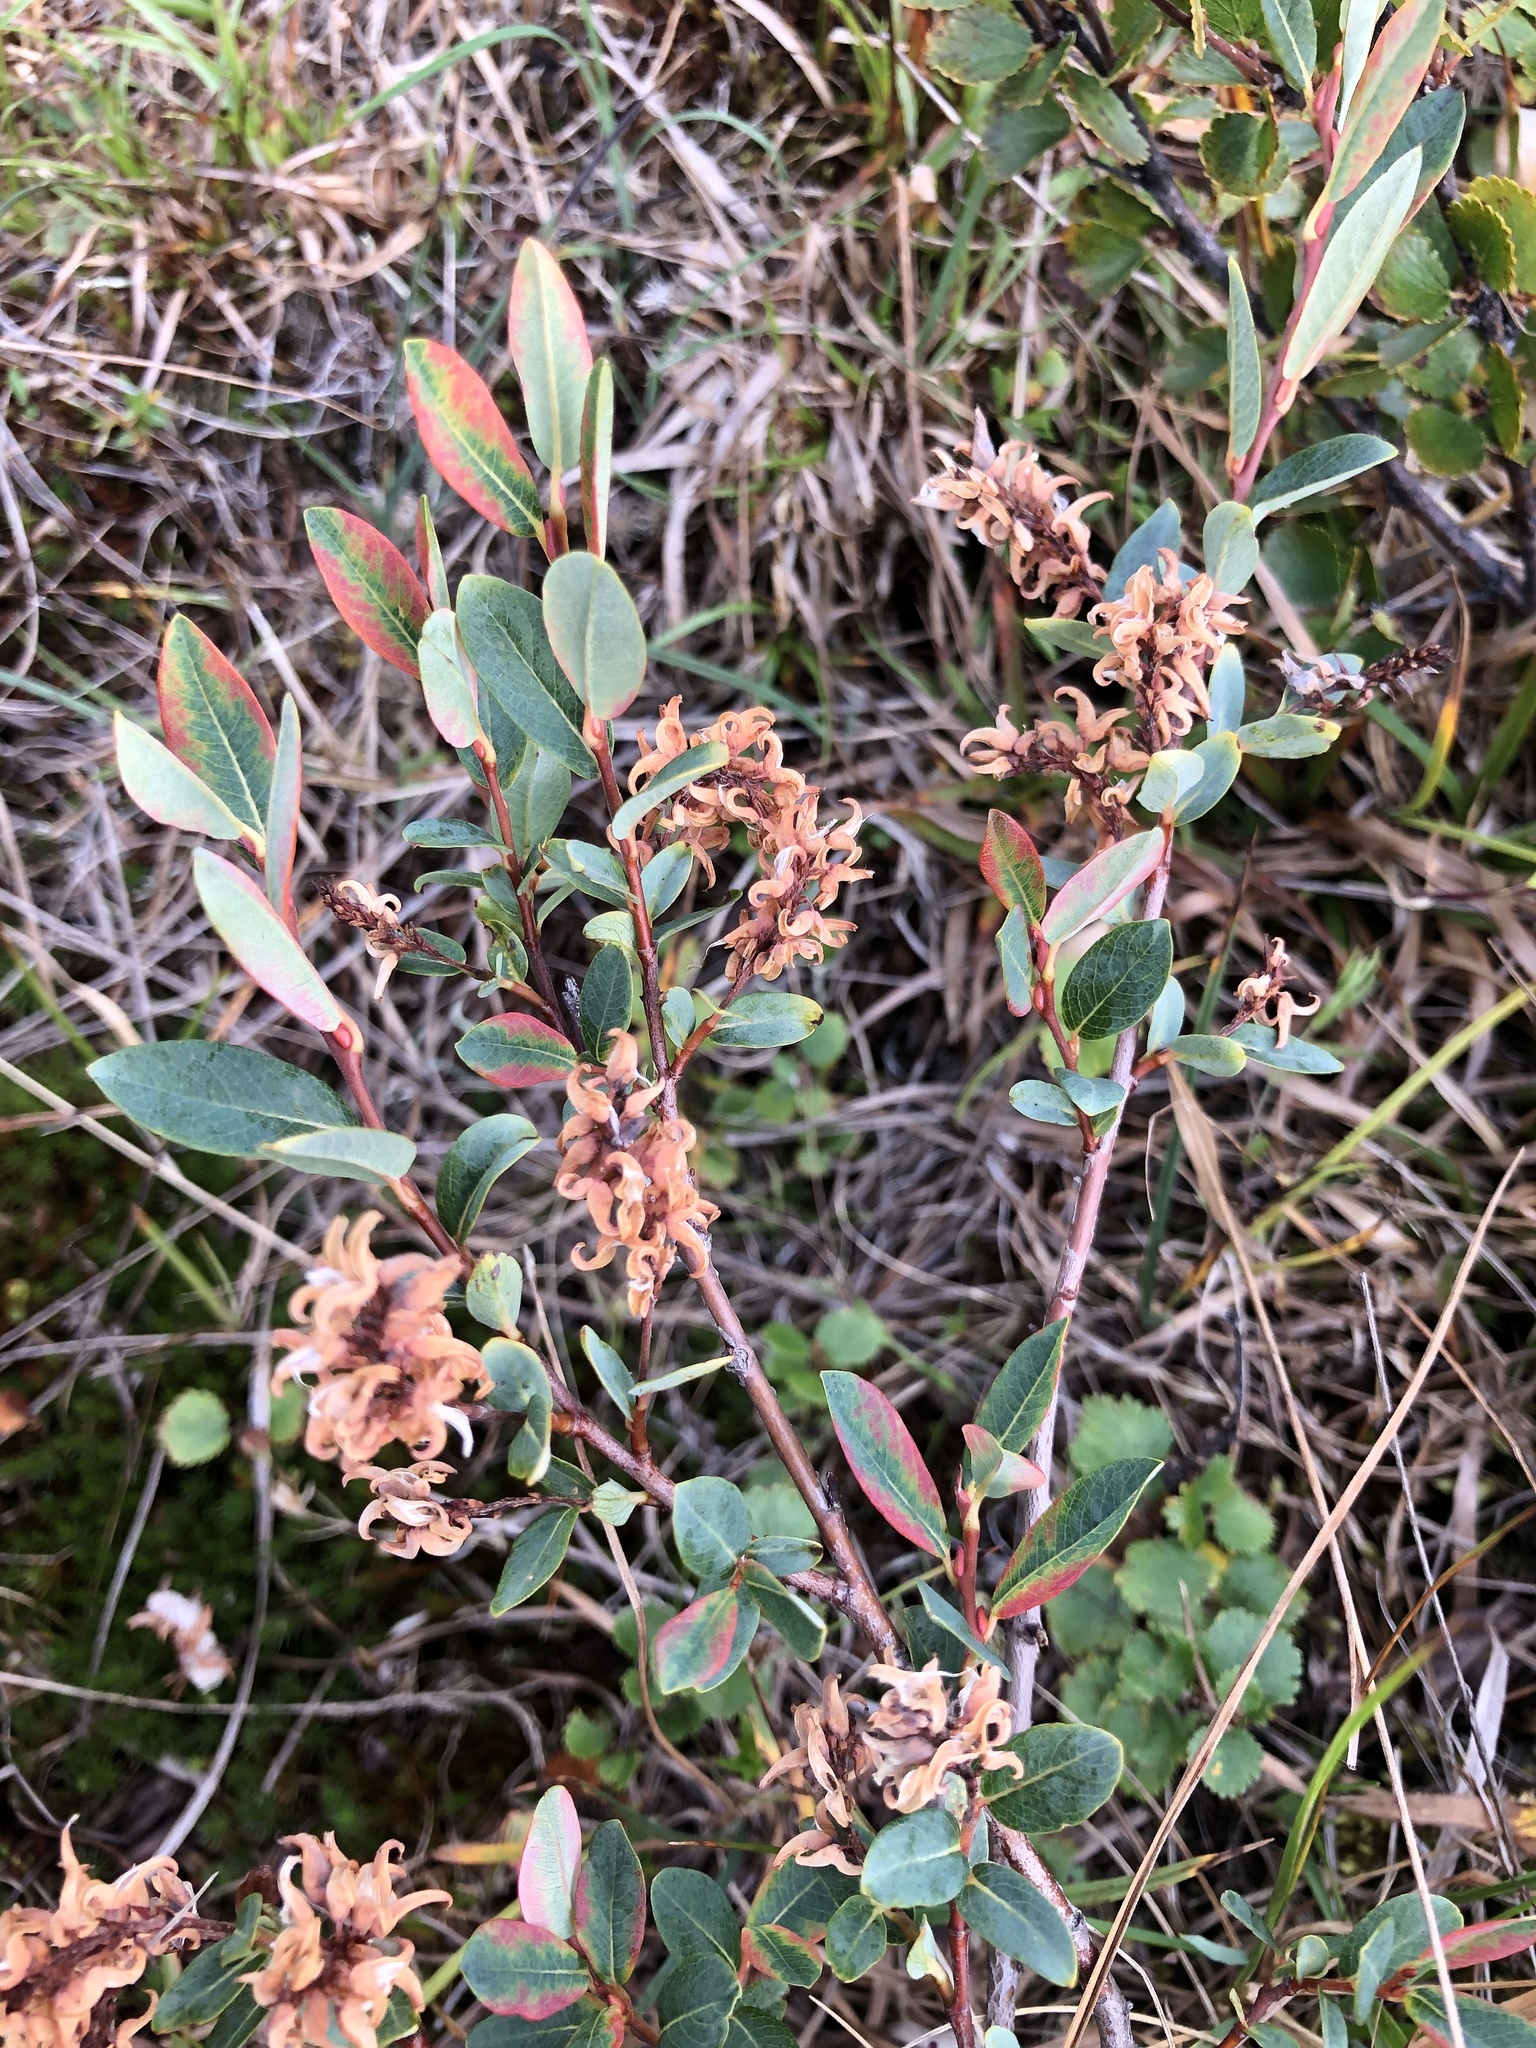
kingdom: Plantae
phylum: Tracheophyta
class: Magnoliopsida
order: Malpighiales
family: Salicaceae
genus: Salix
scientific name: Salix myrtilloides
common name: Myrtle-leaved willow
